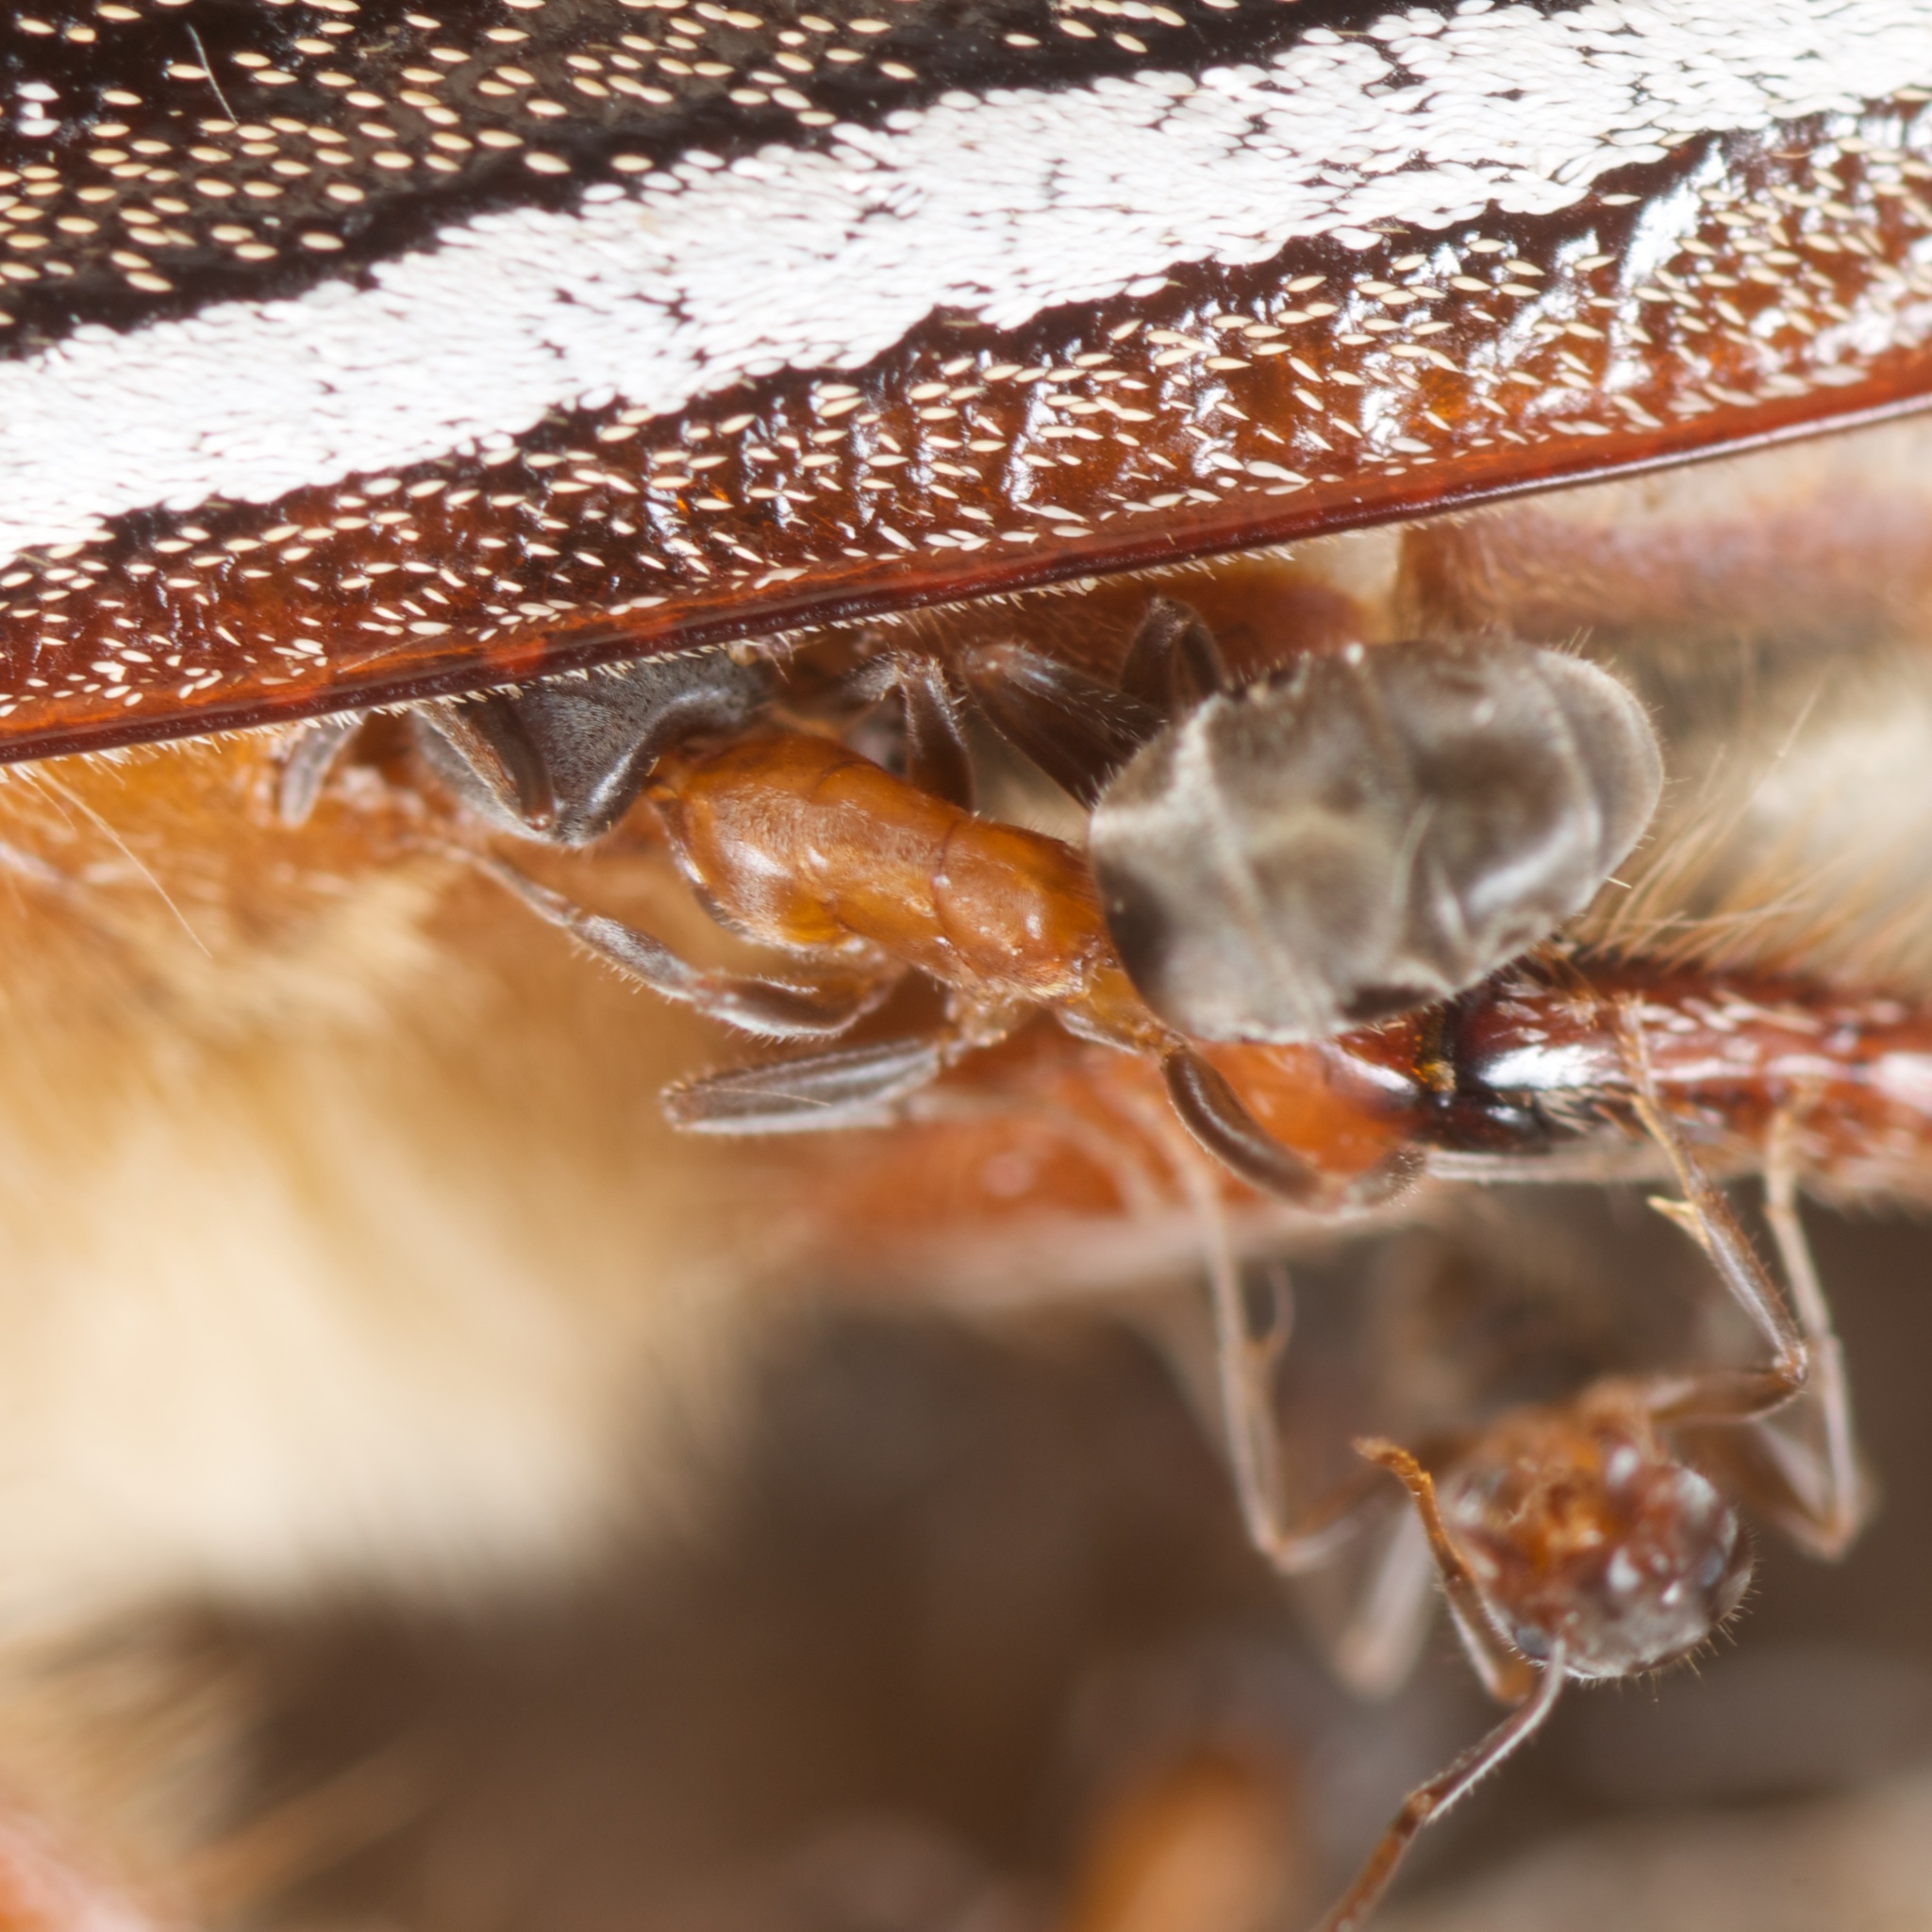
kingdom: Animalia
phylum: Arthropoda
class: Insecta
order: Hymenoptera
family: Formicidae
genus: Liometopum
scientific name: Liometopum occidentale
